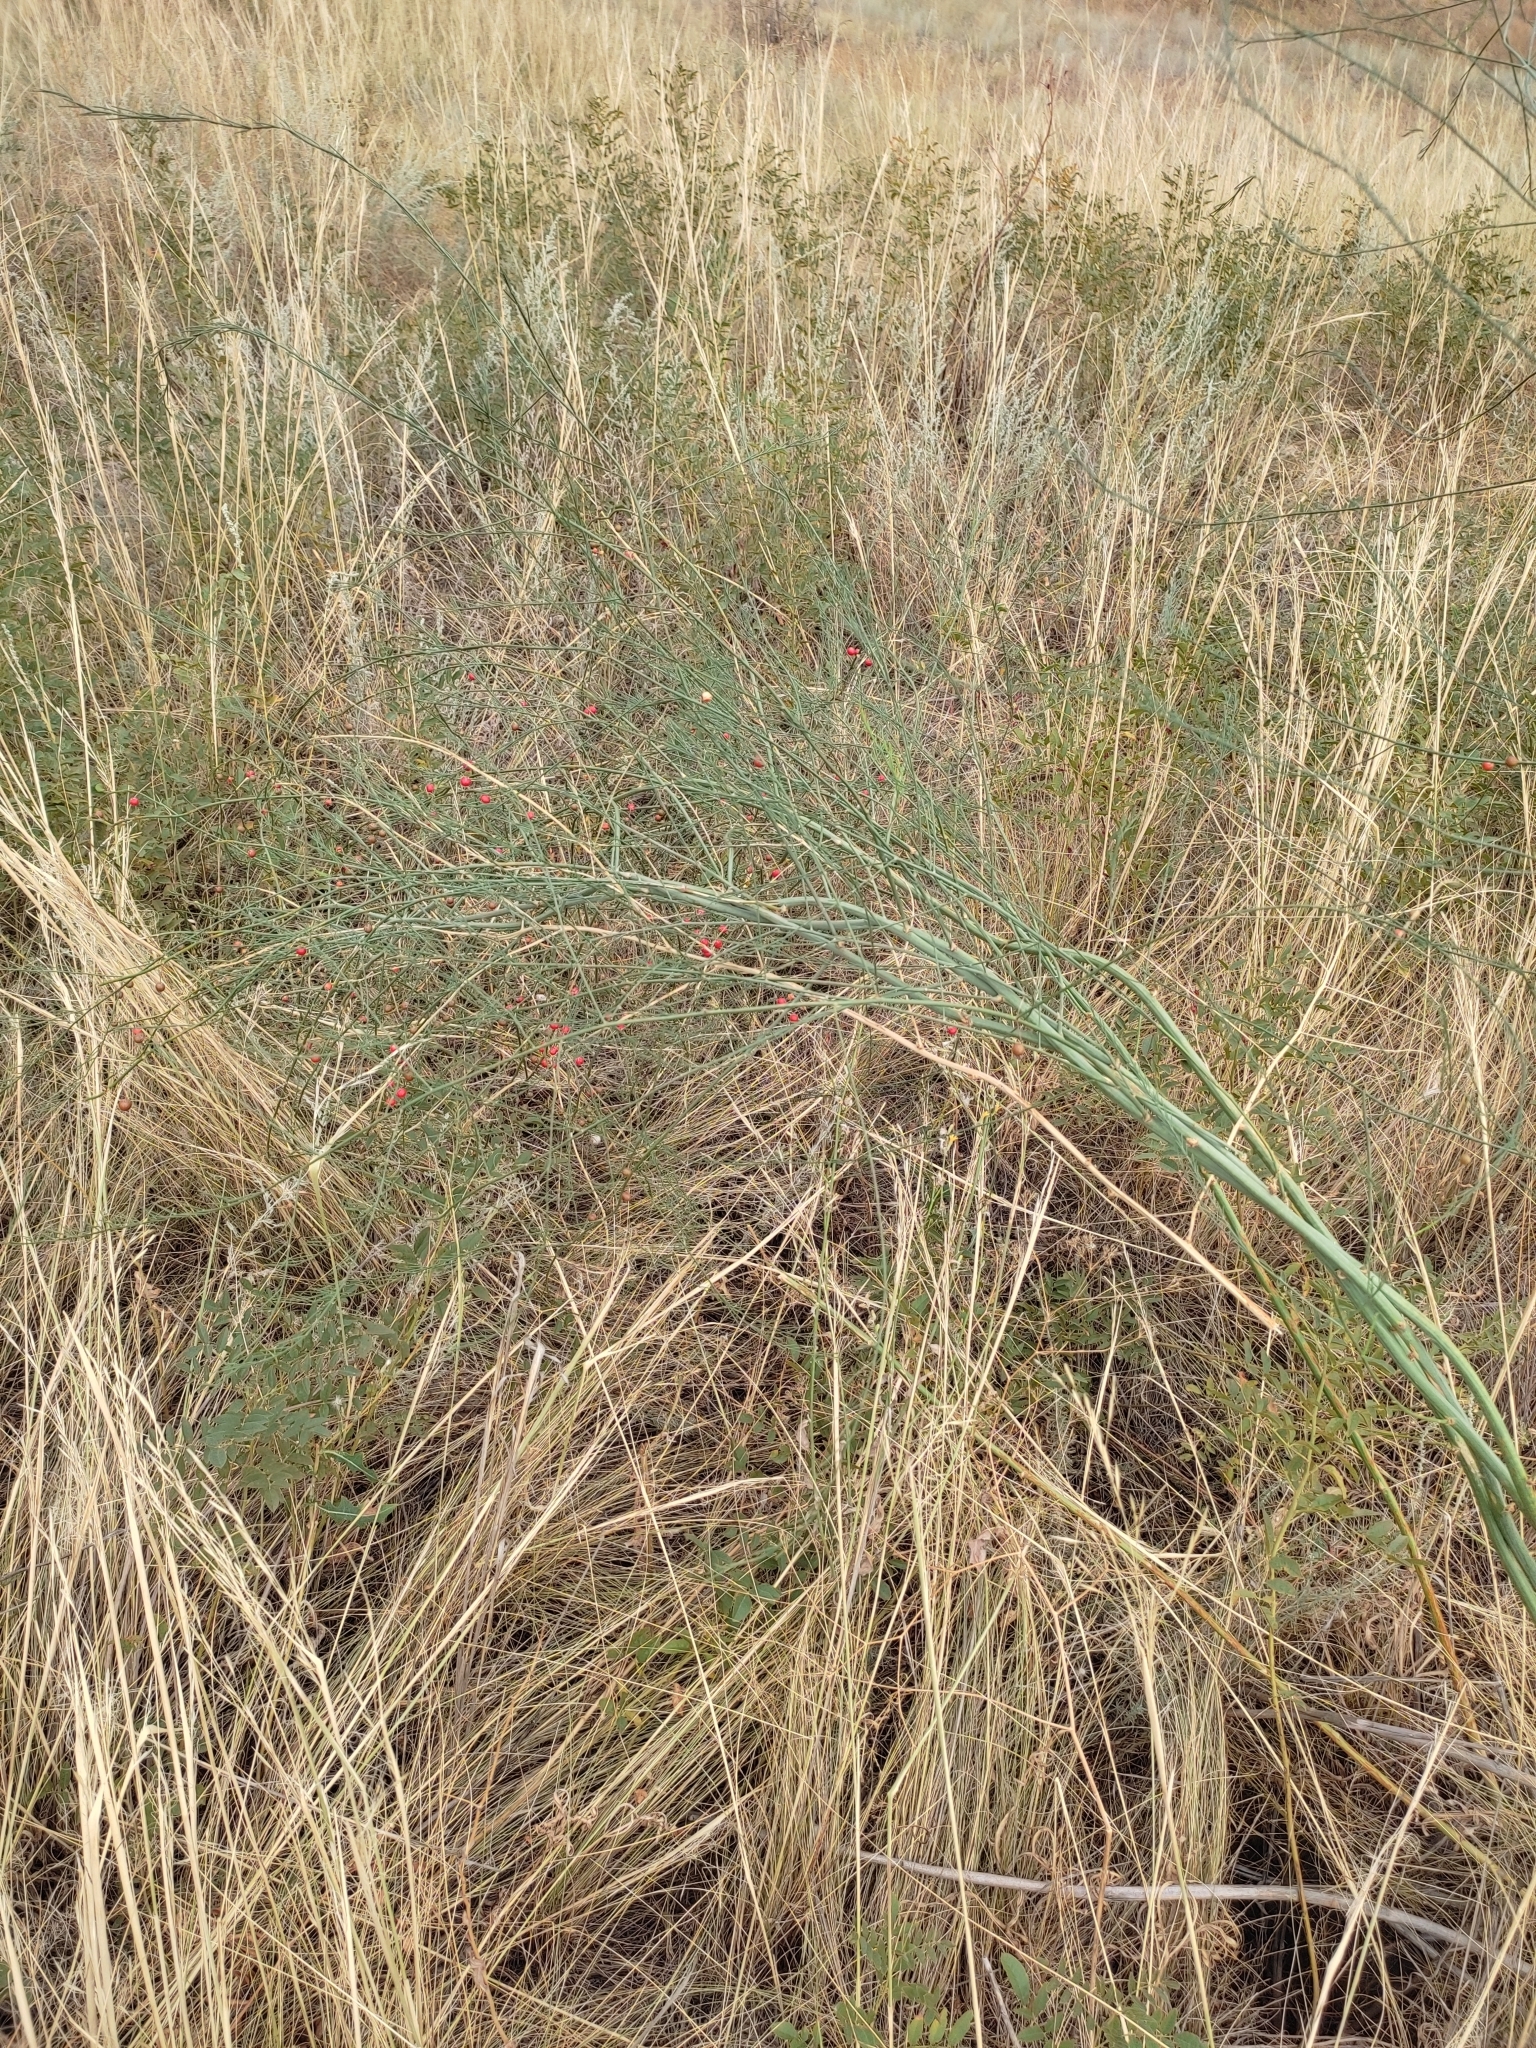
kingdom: Plantae
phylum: Tracheophyta
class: Liliopsida
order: Asparagales
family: Asparagaceae
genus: Asparagus
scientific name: Asparagus officinalis
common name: Garden asparagus
